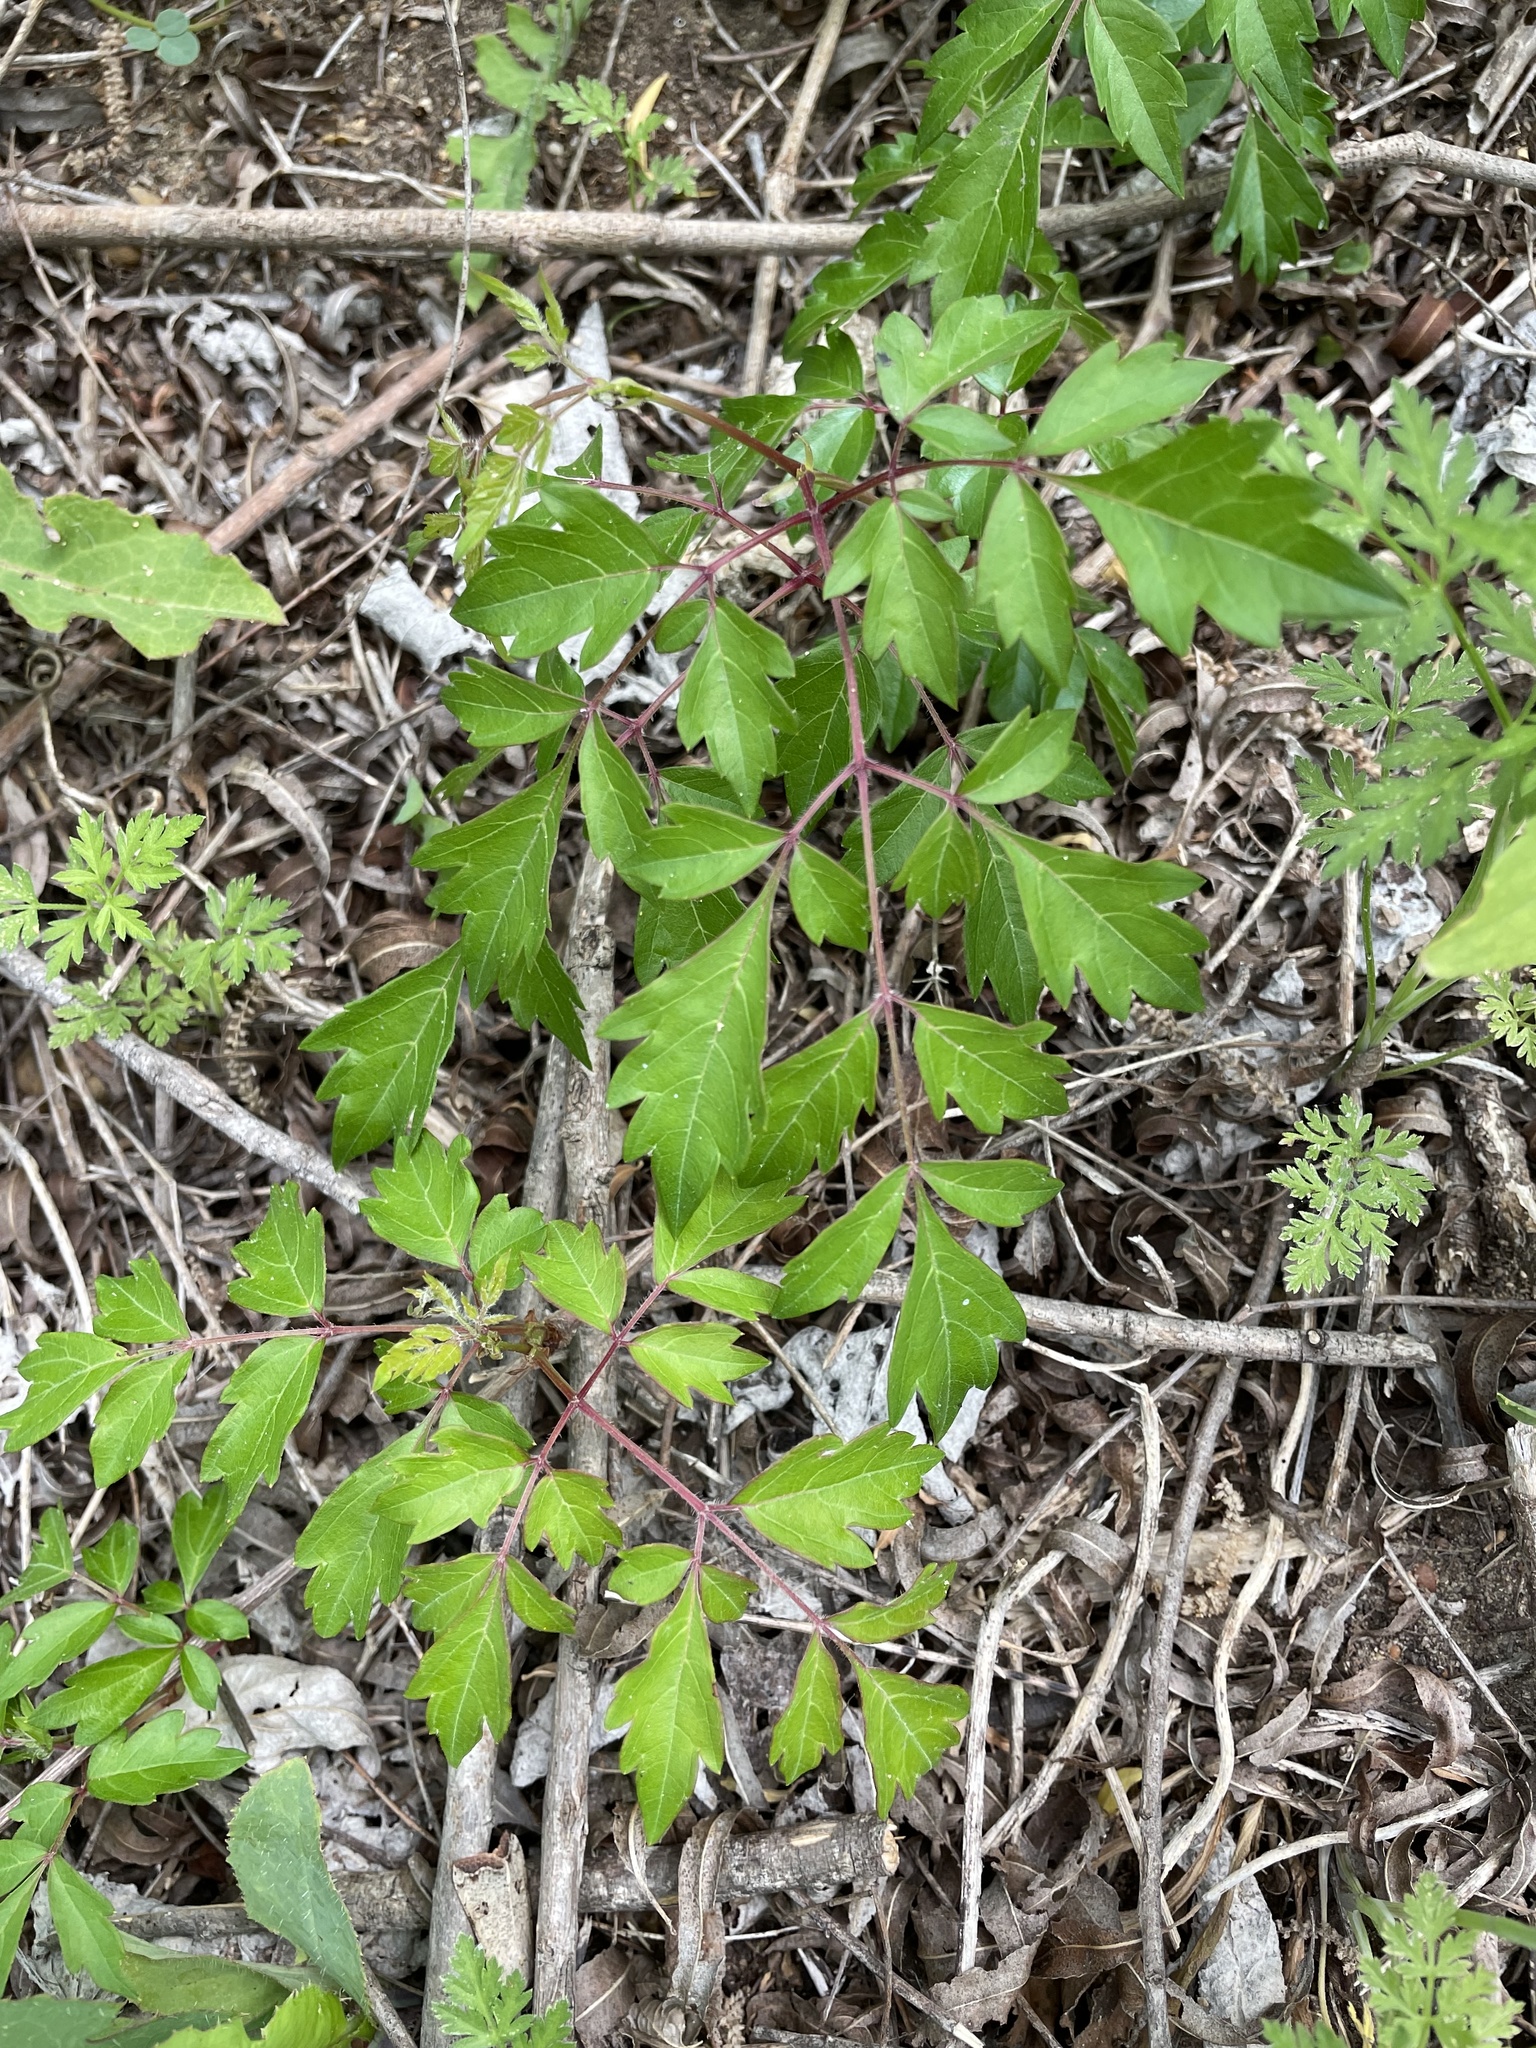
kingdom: Plantae
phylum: Tracheophyta
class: Magnoliopsida
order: Vitales
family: Vitaceae
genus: Nekemias
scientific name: Nekemias arborea
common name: Peppervine
